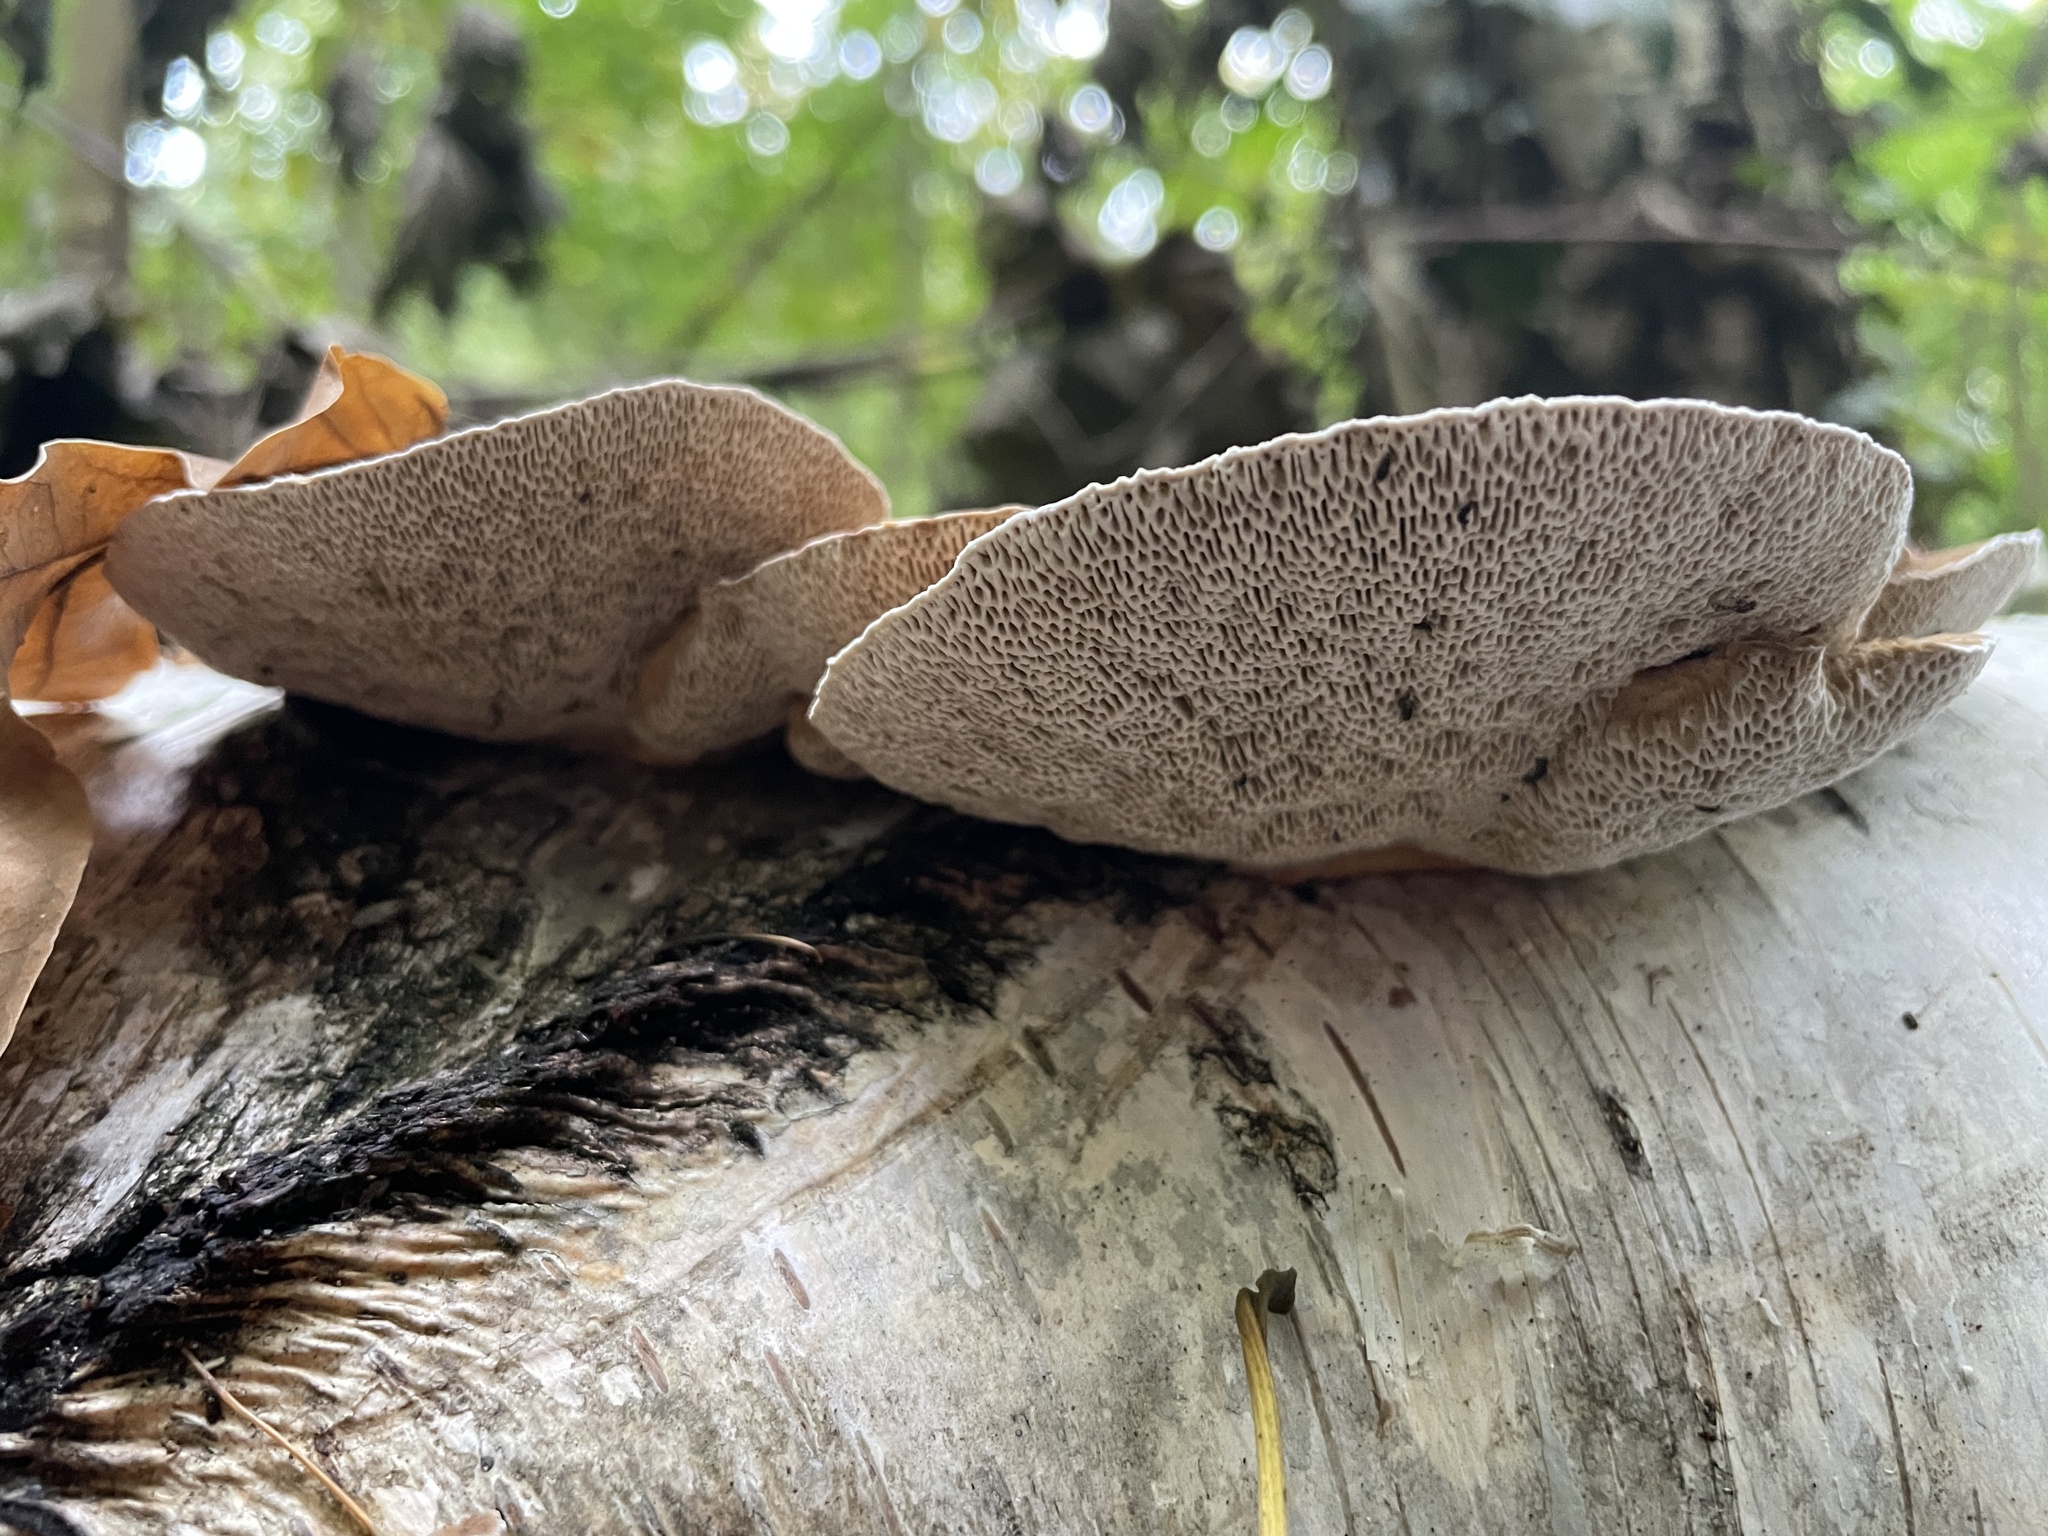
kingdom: Fungi
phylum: Basidiomycota
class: Agaricomycetes
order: Polyporales
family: Polyporaceae
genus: Daedaleopsis
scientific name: Daedaleopsis confragosa
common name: Blushing bracket
